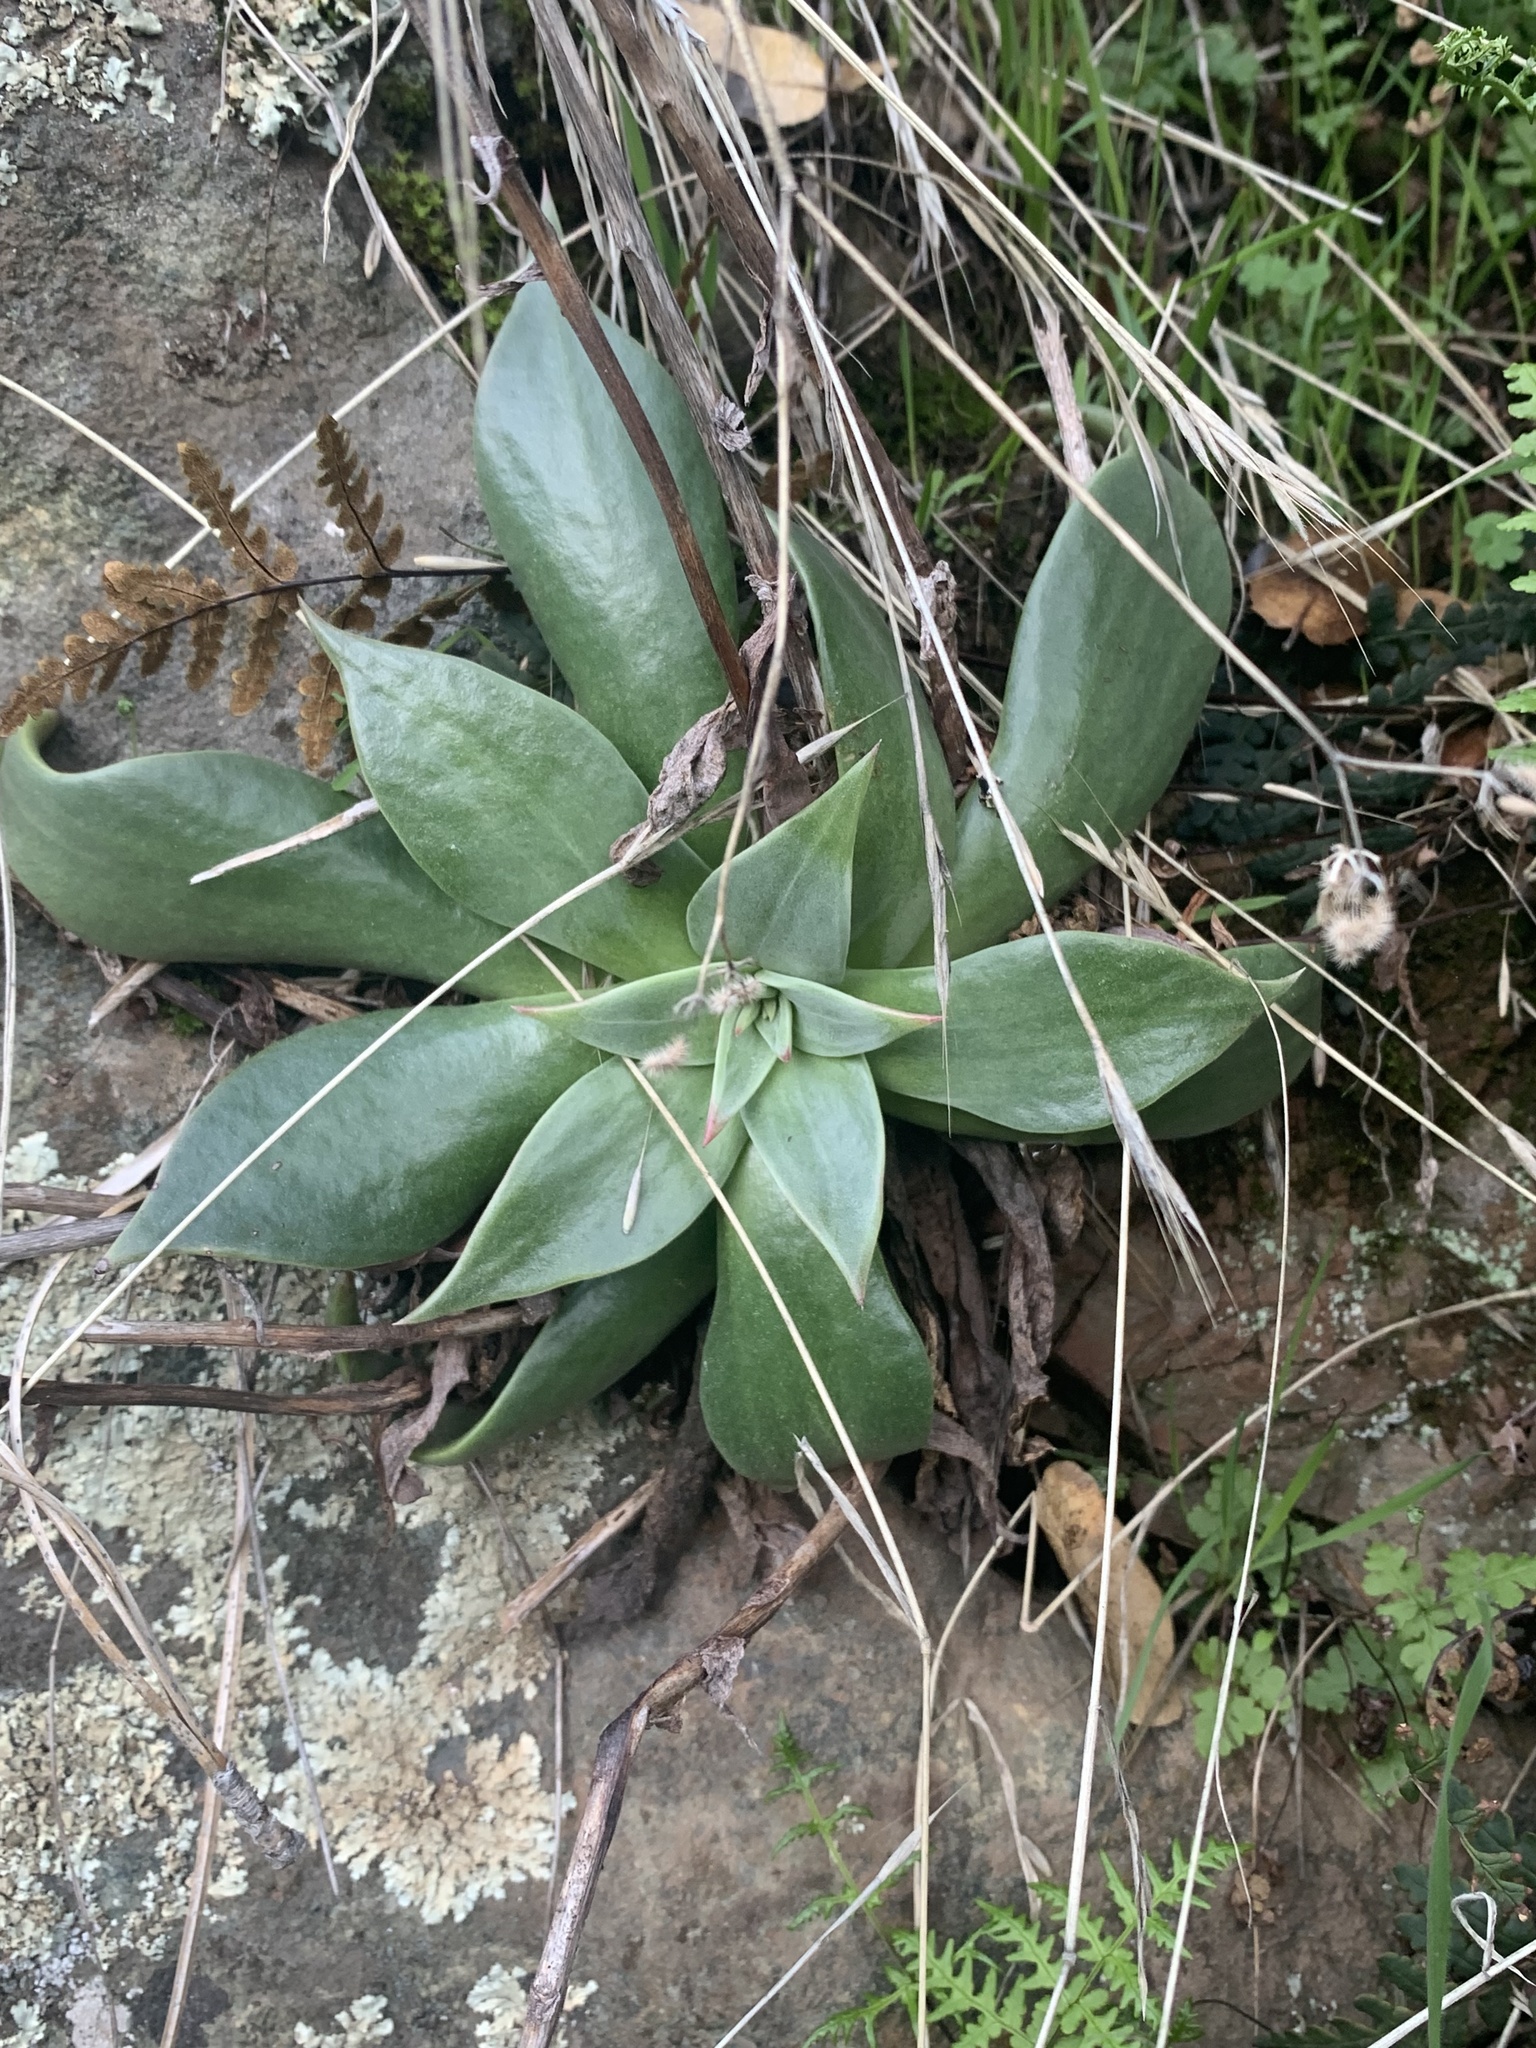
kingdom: Plantae
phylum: Tracheophyta
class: Magnoliopsida
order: Saxifragales
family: Crassulaceae
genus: Dudleya
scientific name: Dudleya cymosa
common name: Canyon dudleya
